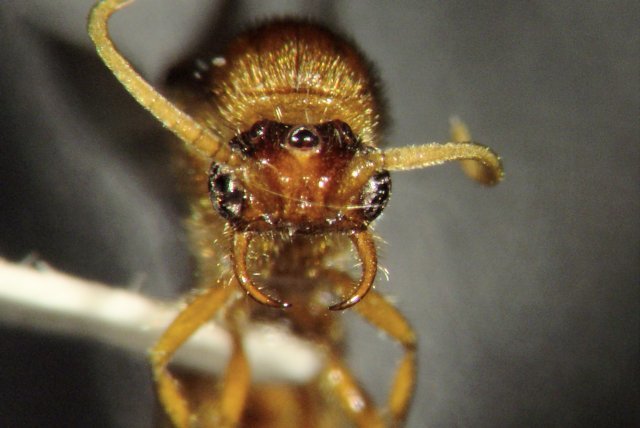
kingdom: Animalia
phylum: Arthropoda
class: Insecta
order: Hymenoptera
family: Formicidae
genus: Neivamyrmex
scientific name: Neivamyrmex fuscipennis
